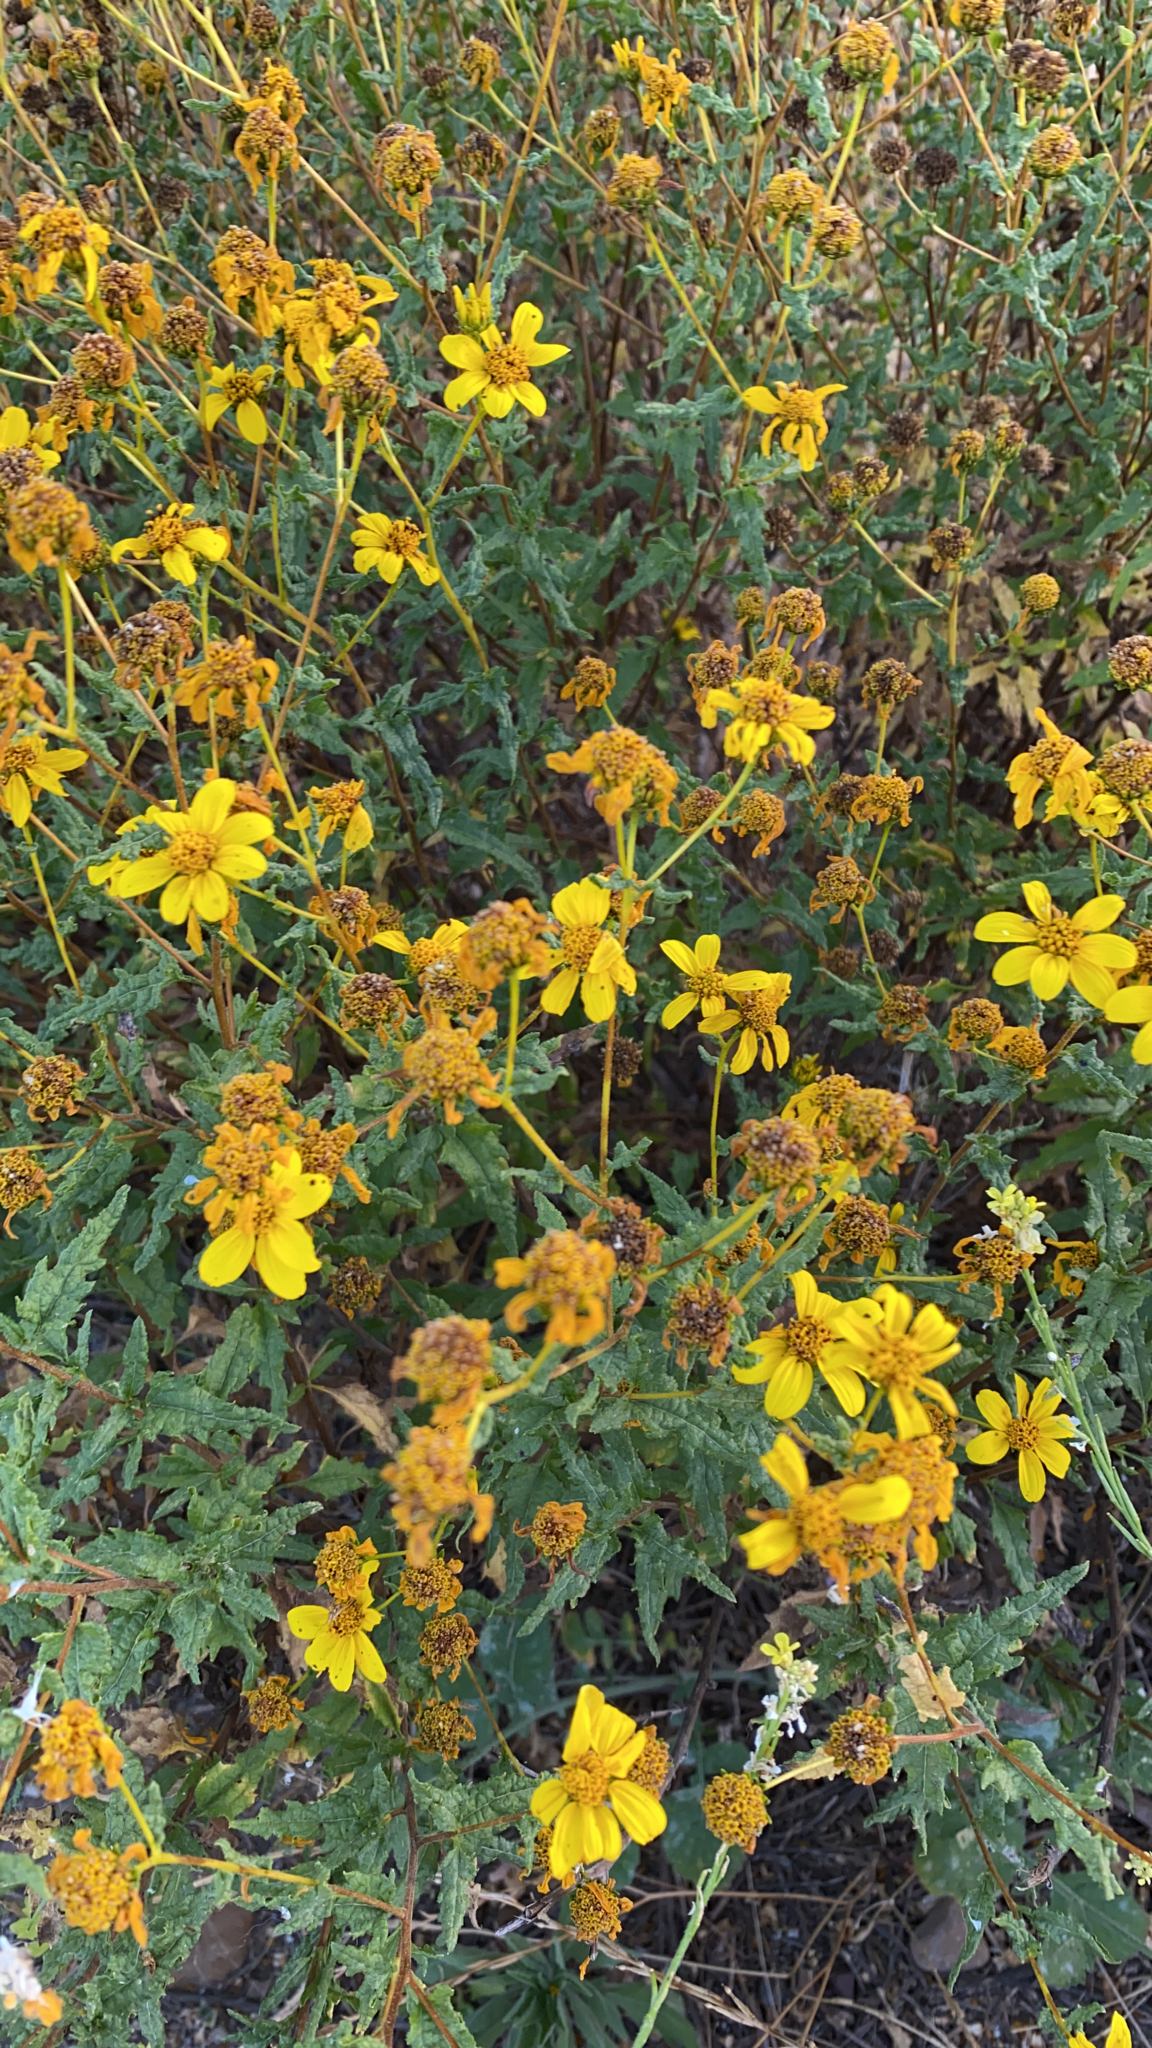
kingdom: Plantae
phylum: Tracheophyta
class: Magnoliopsida
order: Asterales
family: Asteraceae
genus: Bahiopsis
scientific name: Bahiopsis laciniata
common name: San diego county viguiera
